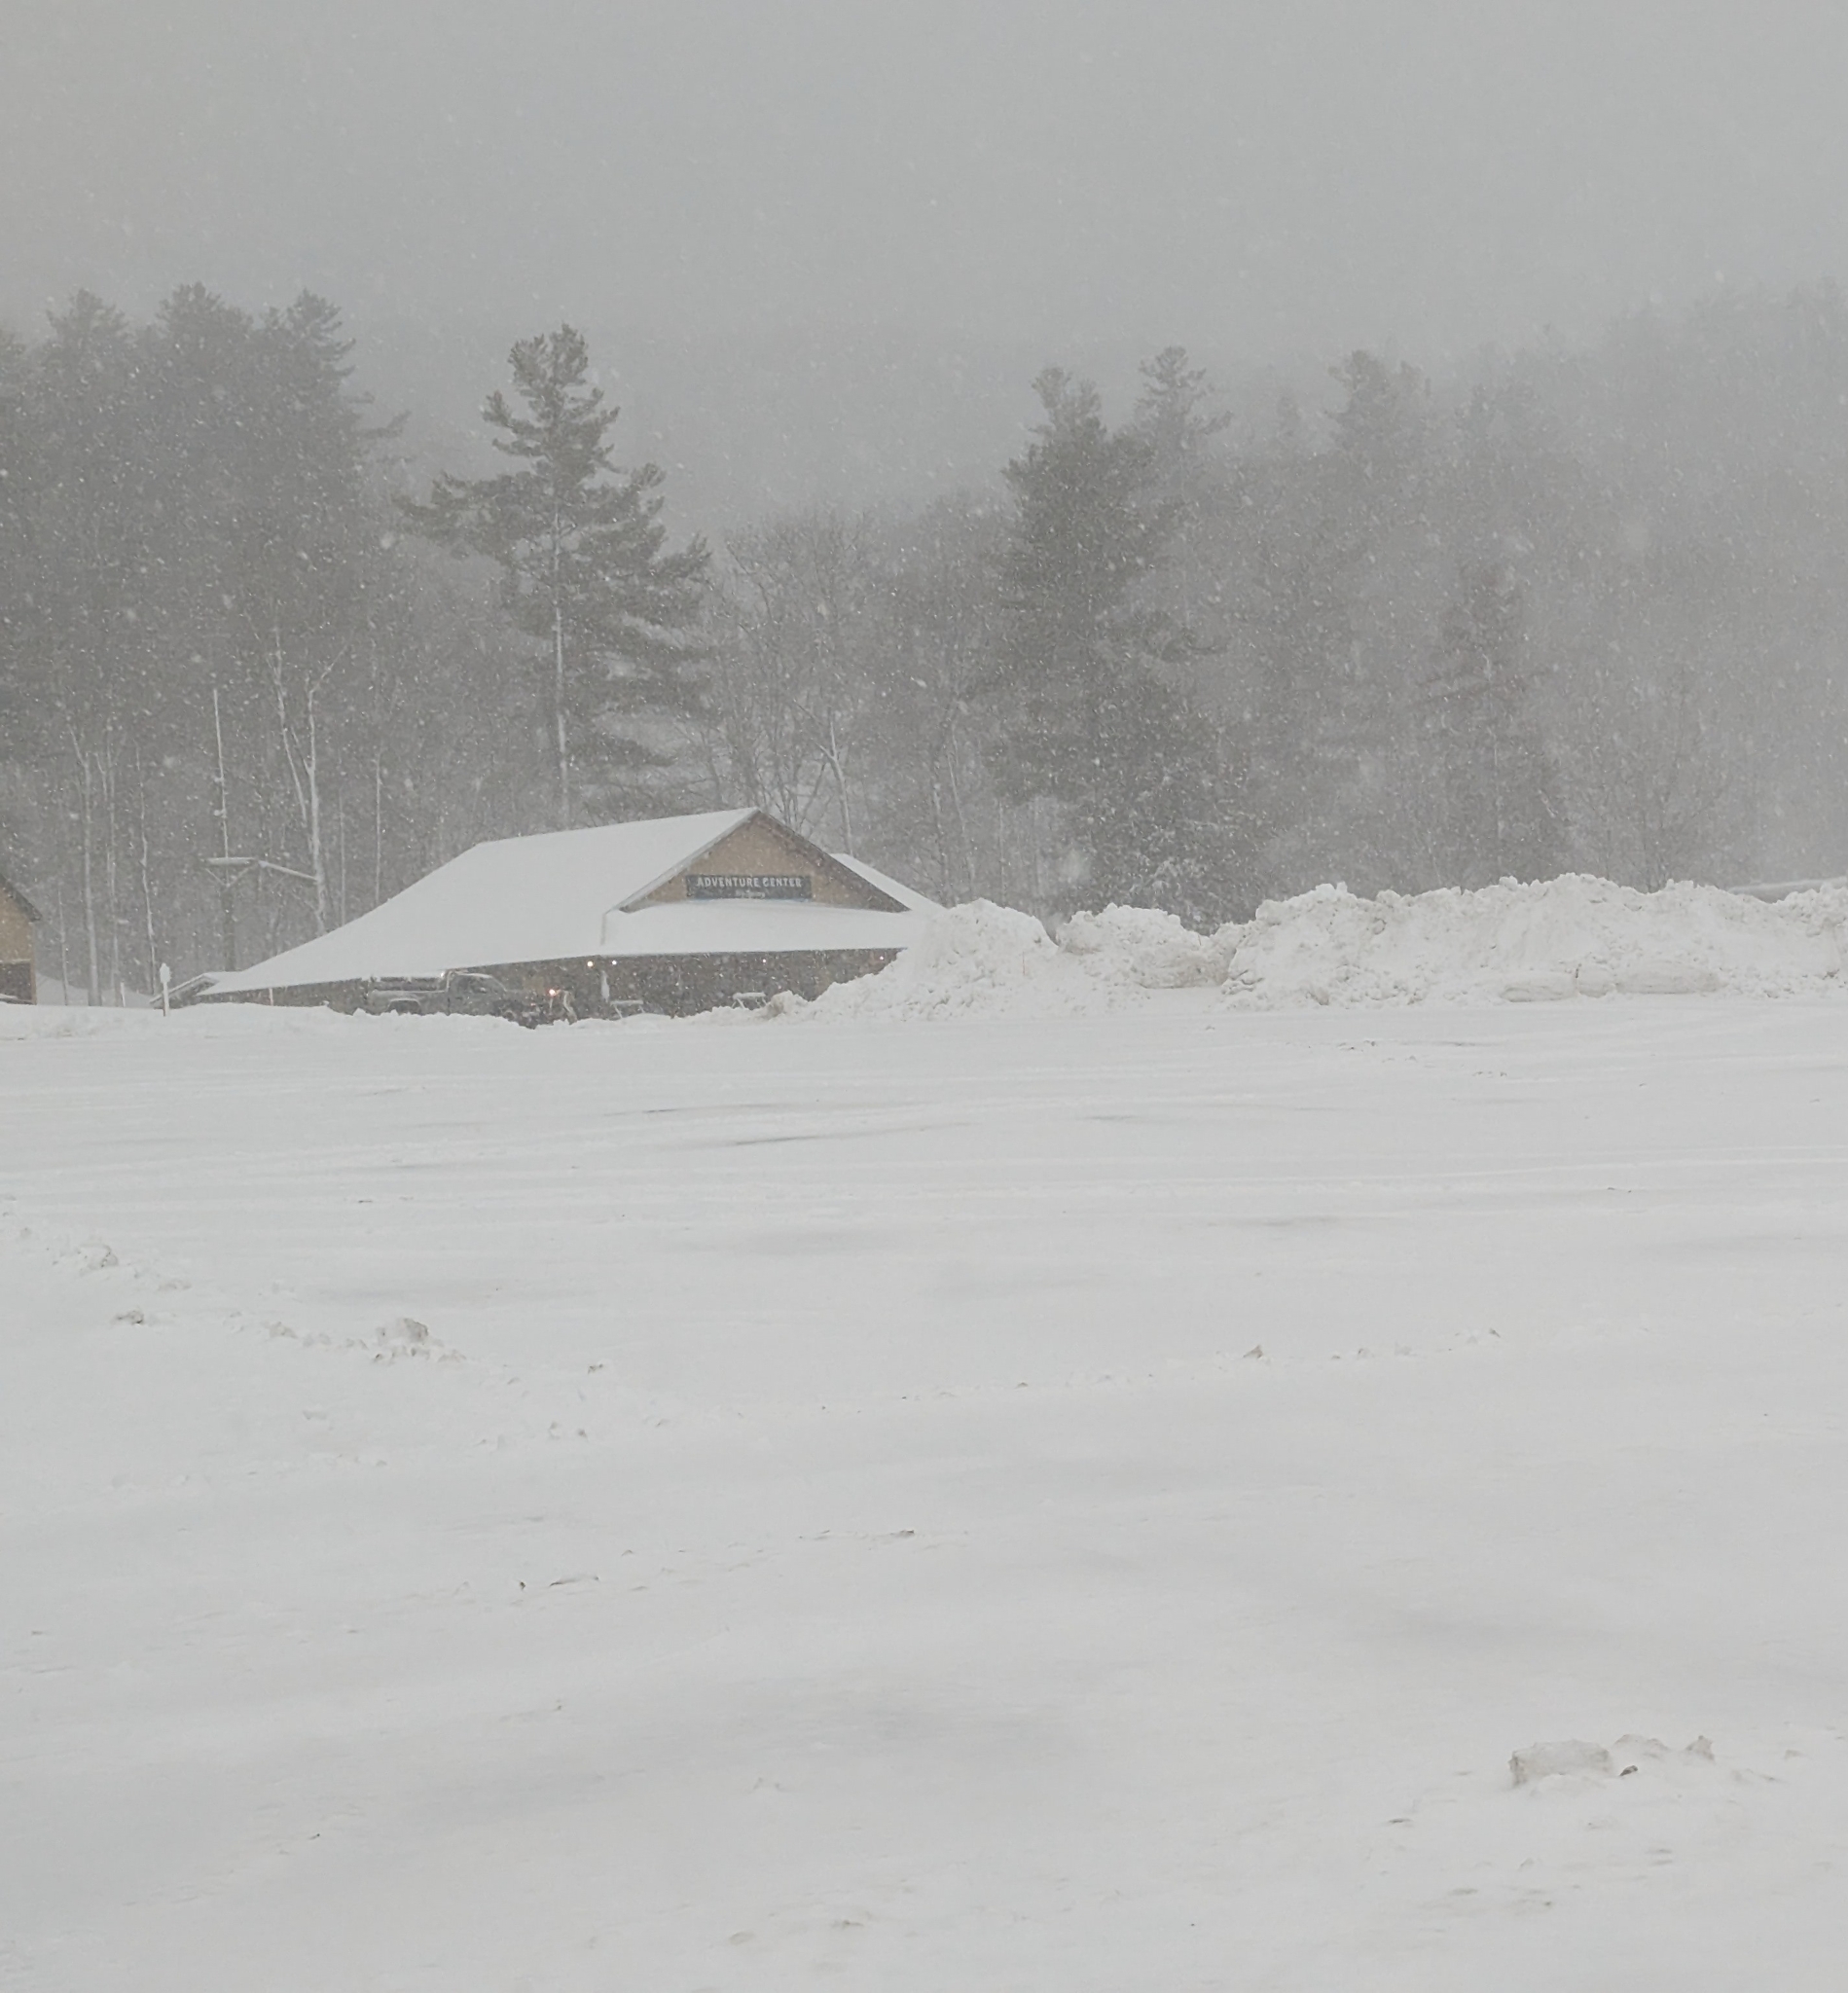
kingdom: Plantae
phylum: Tracheophyta
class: Pinopsida
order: Pinales
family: Pinaceae
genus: Pinus
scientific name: Pinus strobus
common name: Weymouth pine
